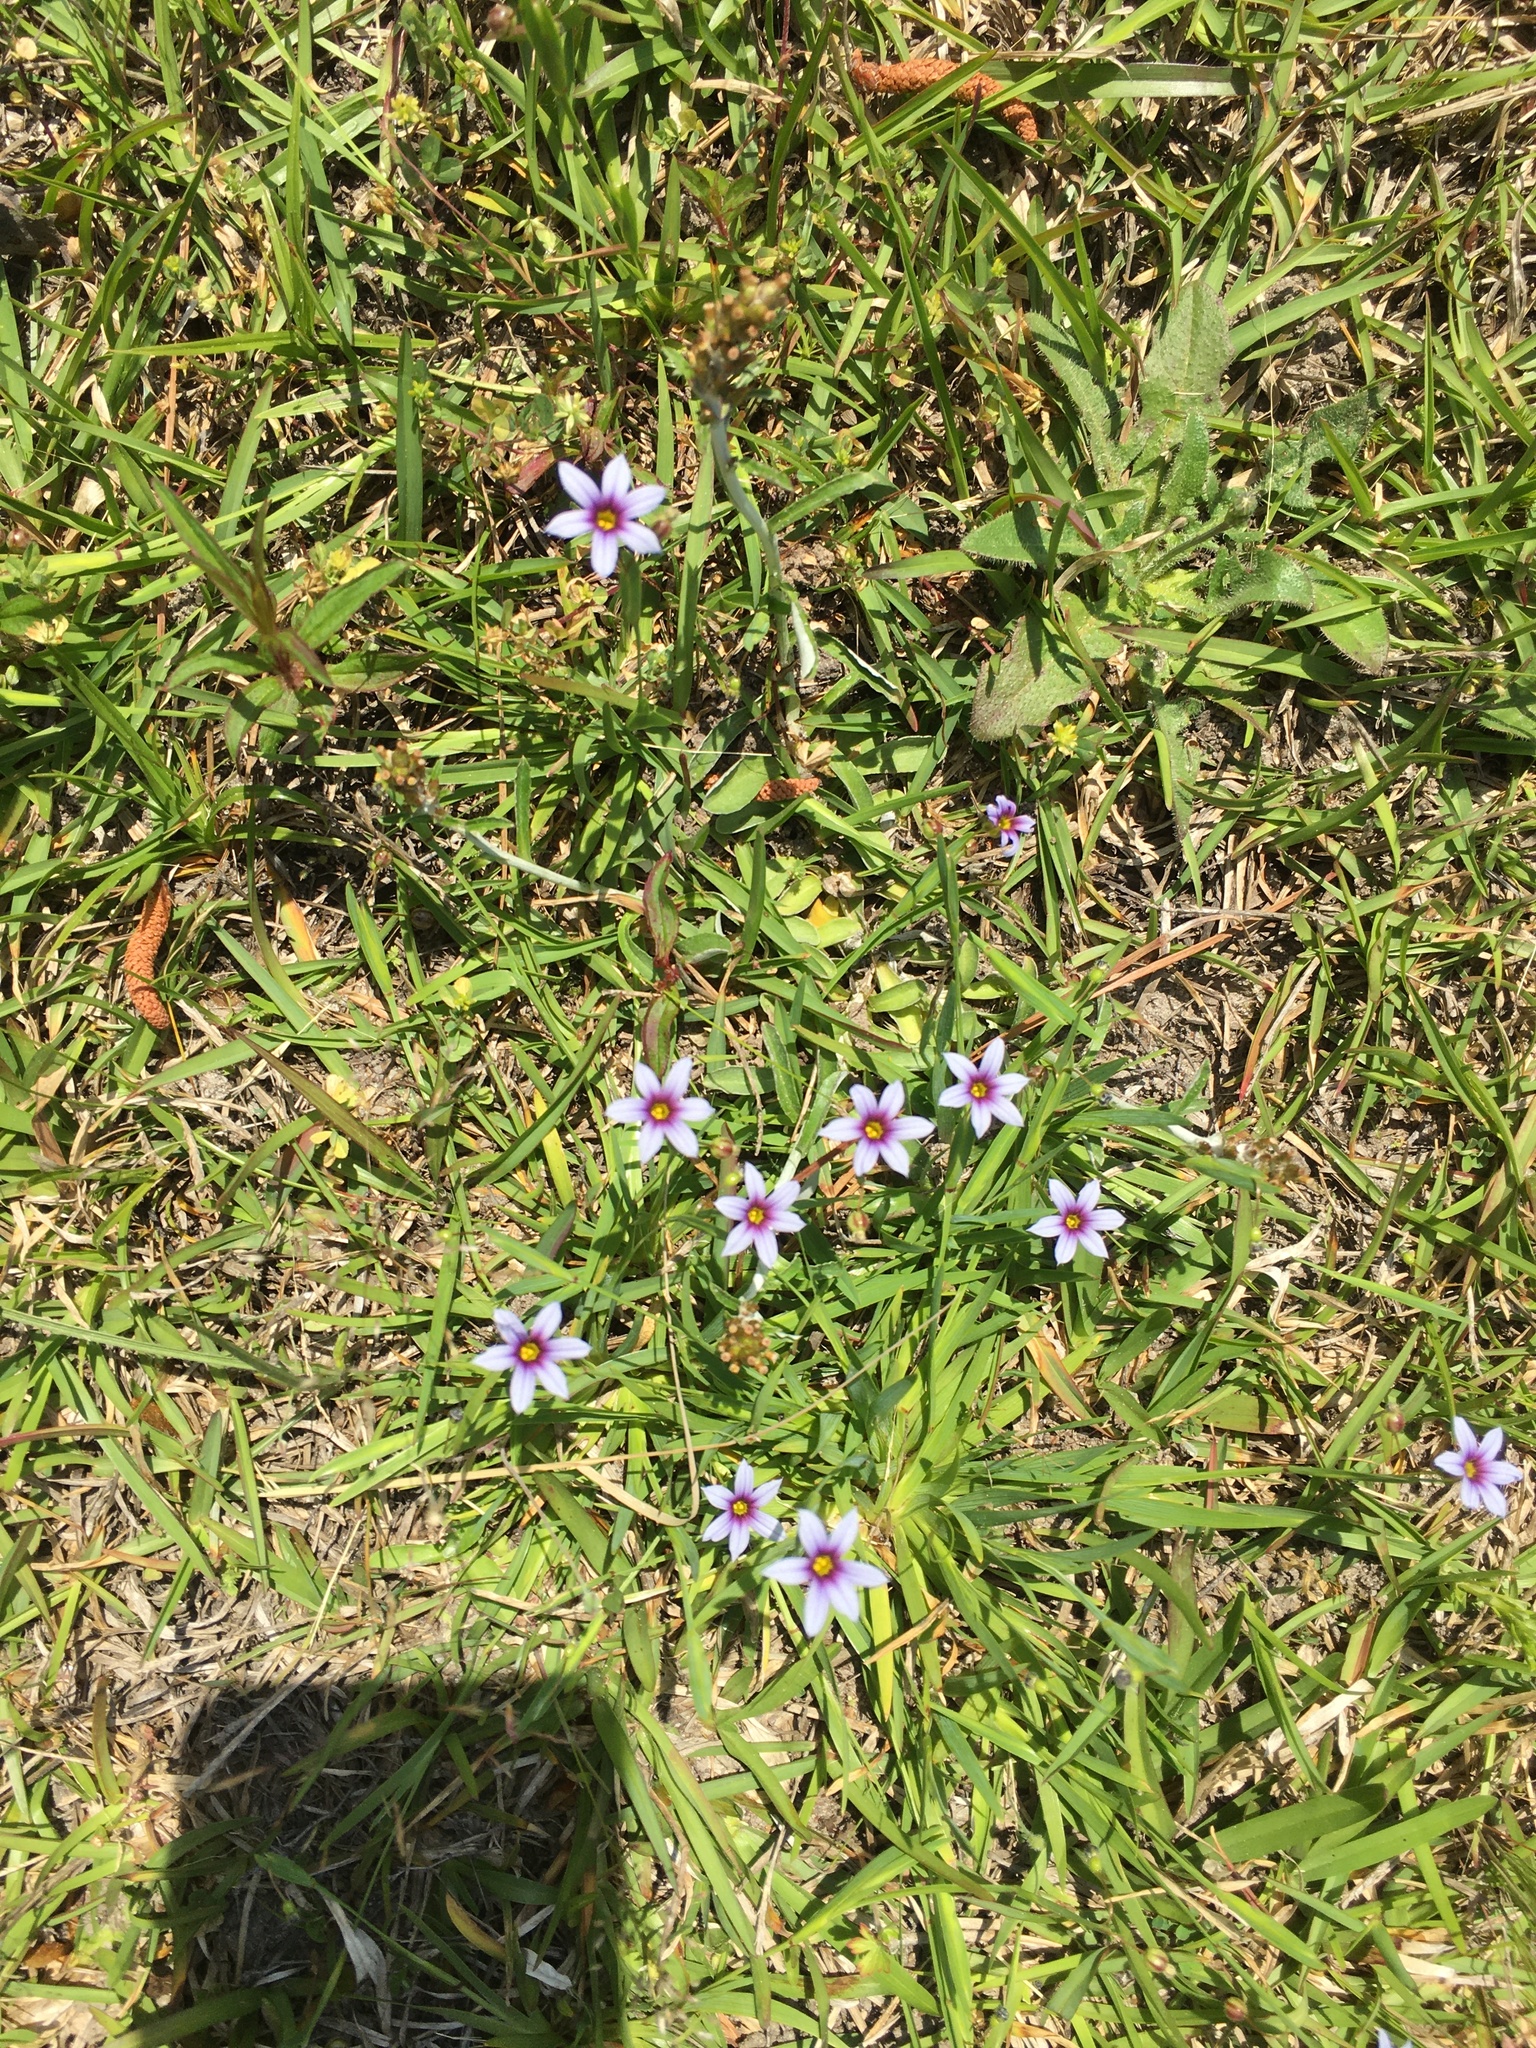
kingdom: Plantae
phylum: Tracheophyta
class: Liliopsida
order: Asparagales
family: Iridaceae
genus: Sisyrinchium
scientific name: Sisyrinchium micranthum
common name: Bermuda pigroot
